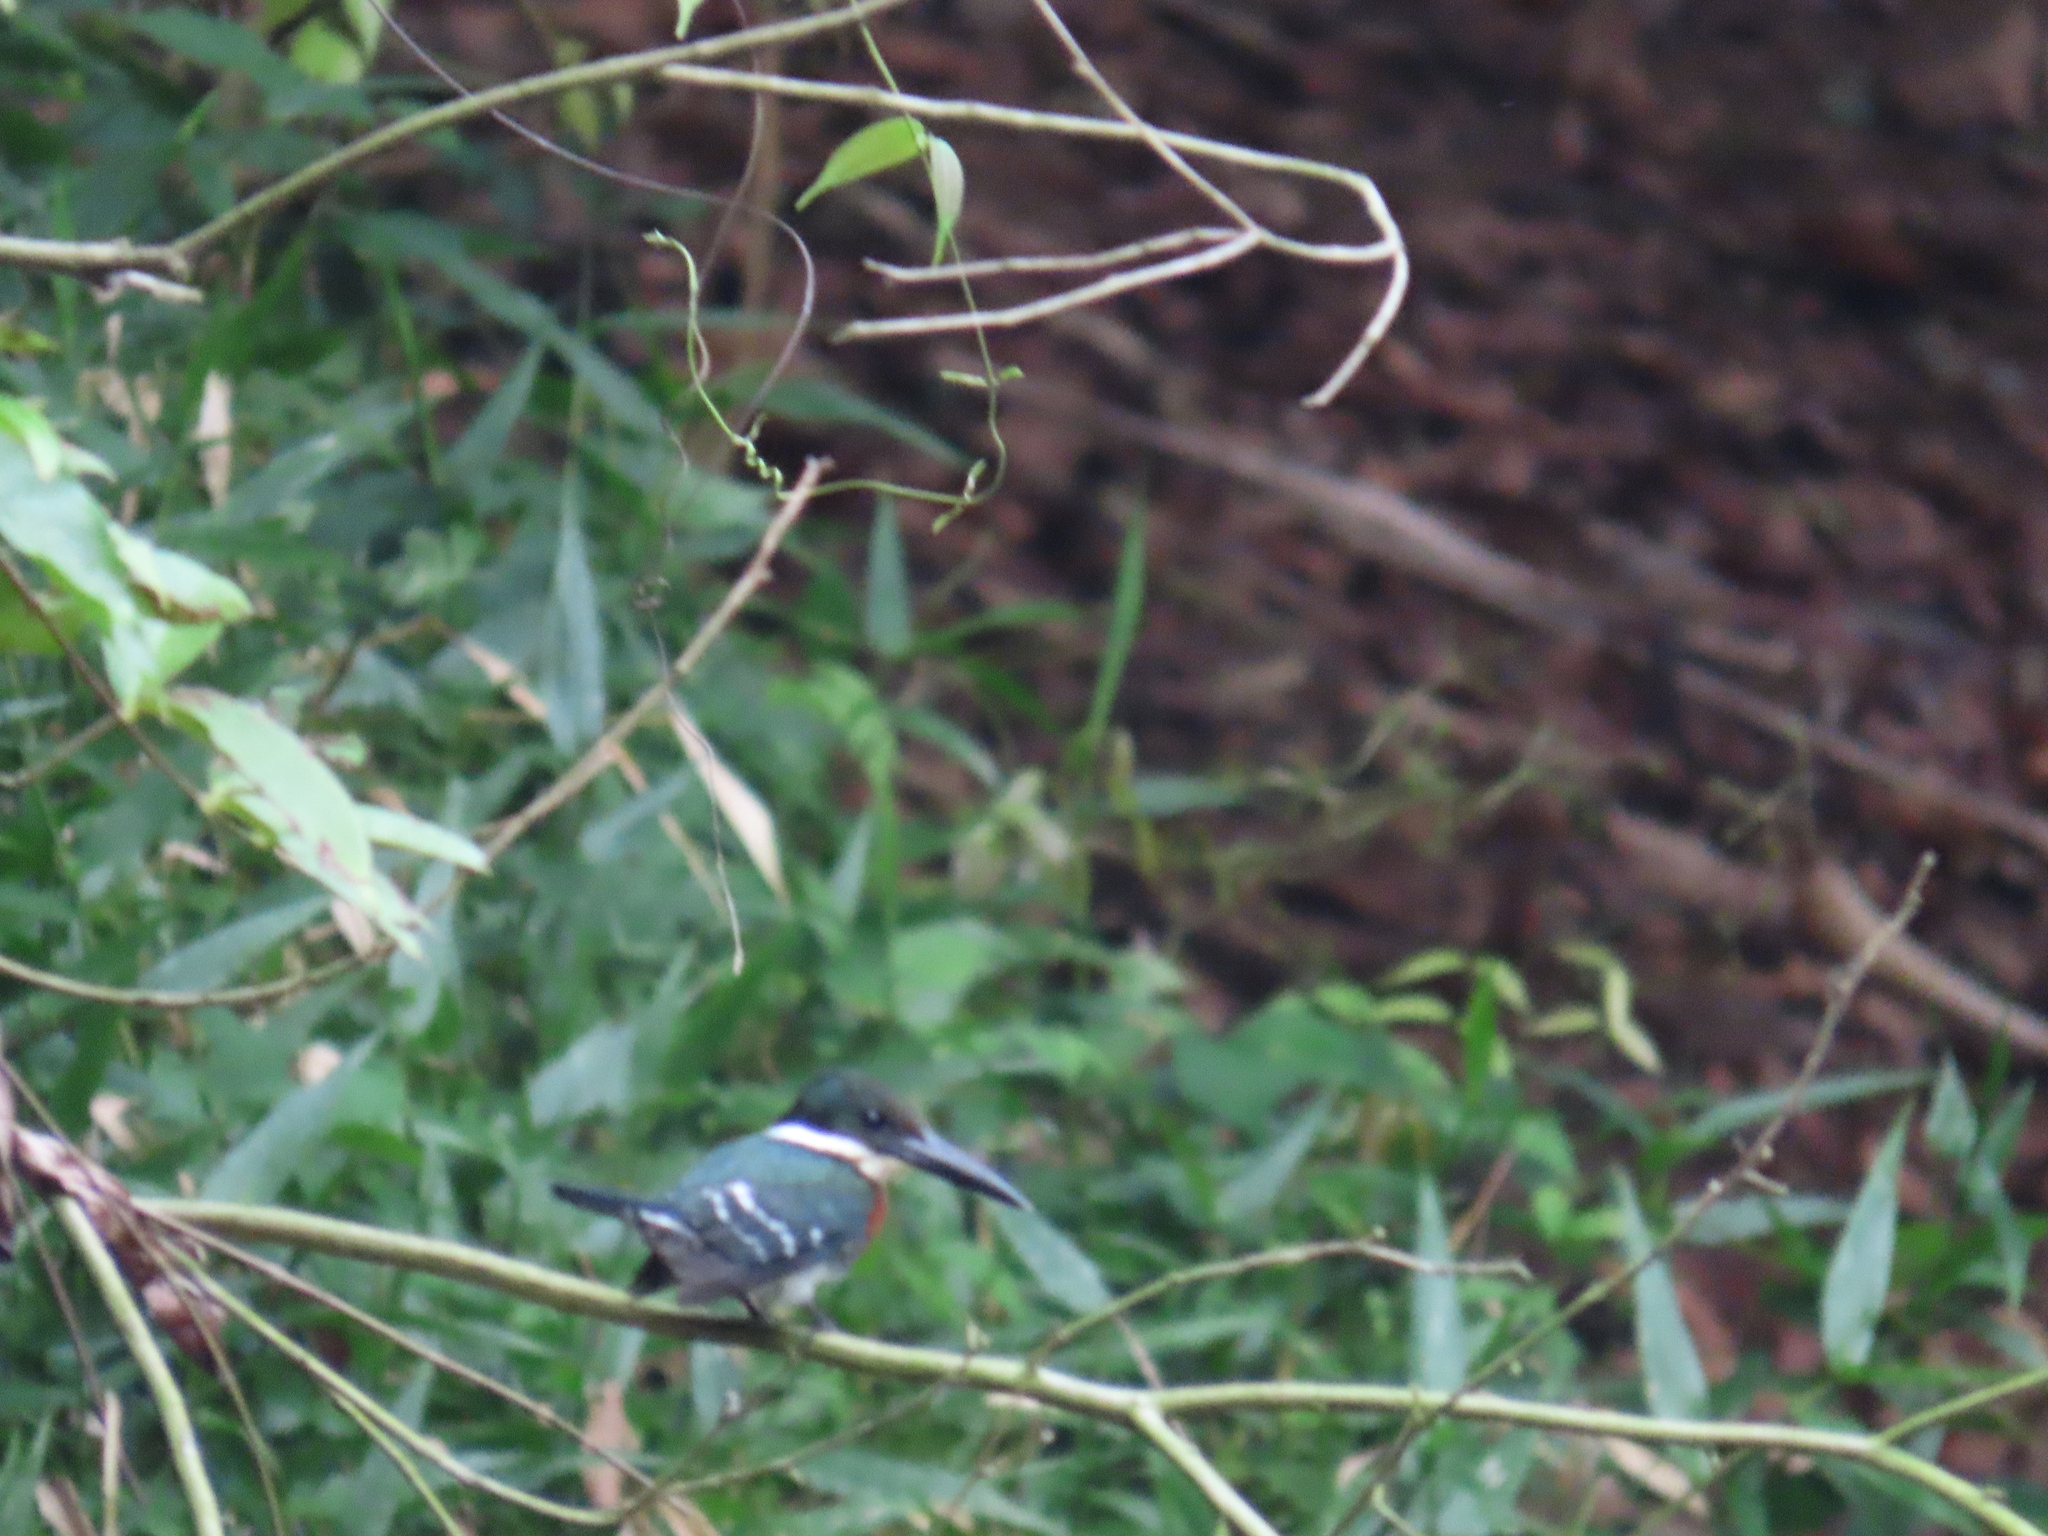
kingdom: Animalia
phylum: Chordata
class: Aves
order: Coraciiformes
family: Alcedinidae
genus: Chloroceryle
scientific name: Chloroceryle americana
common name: Green kingfisher
